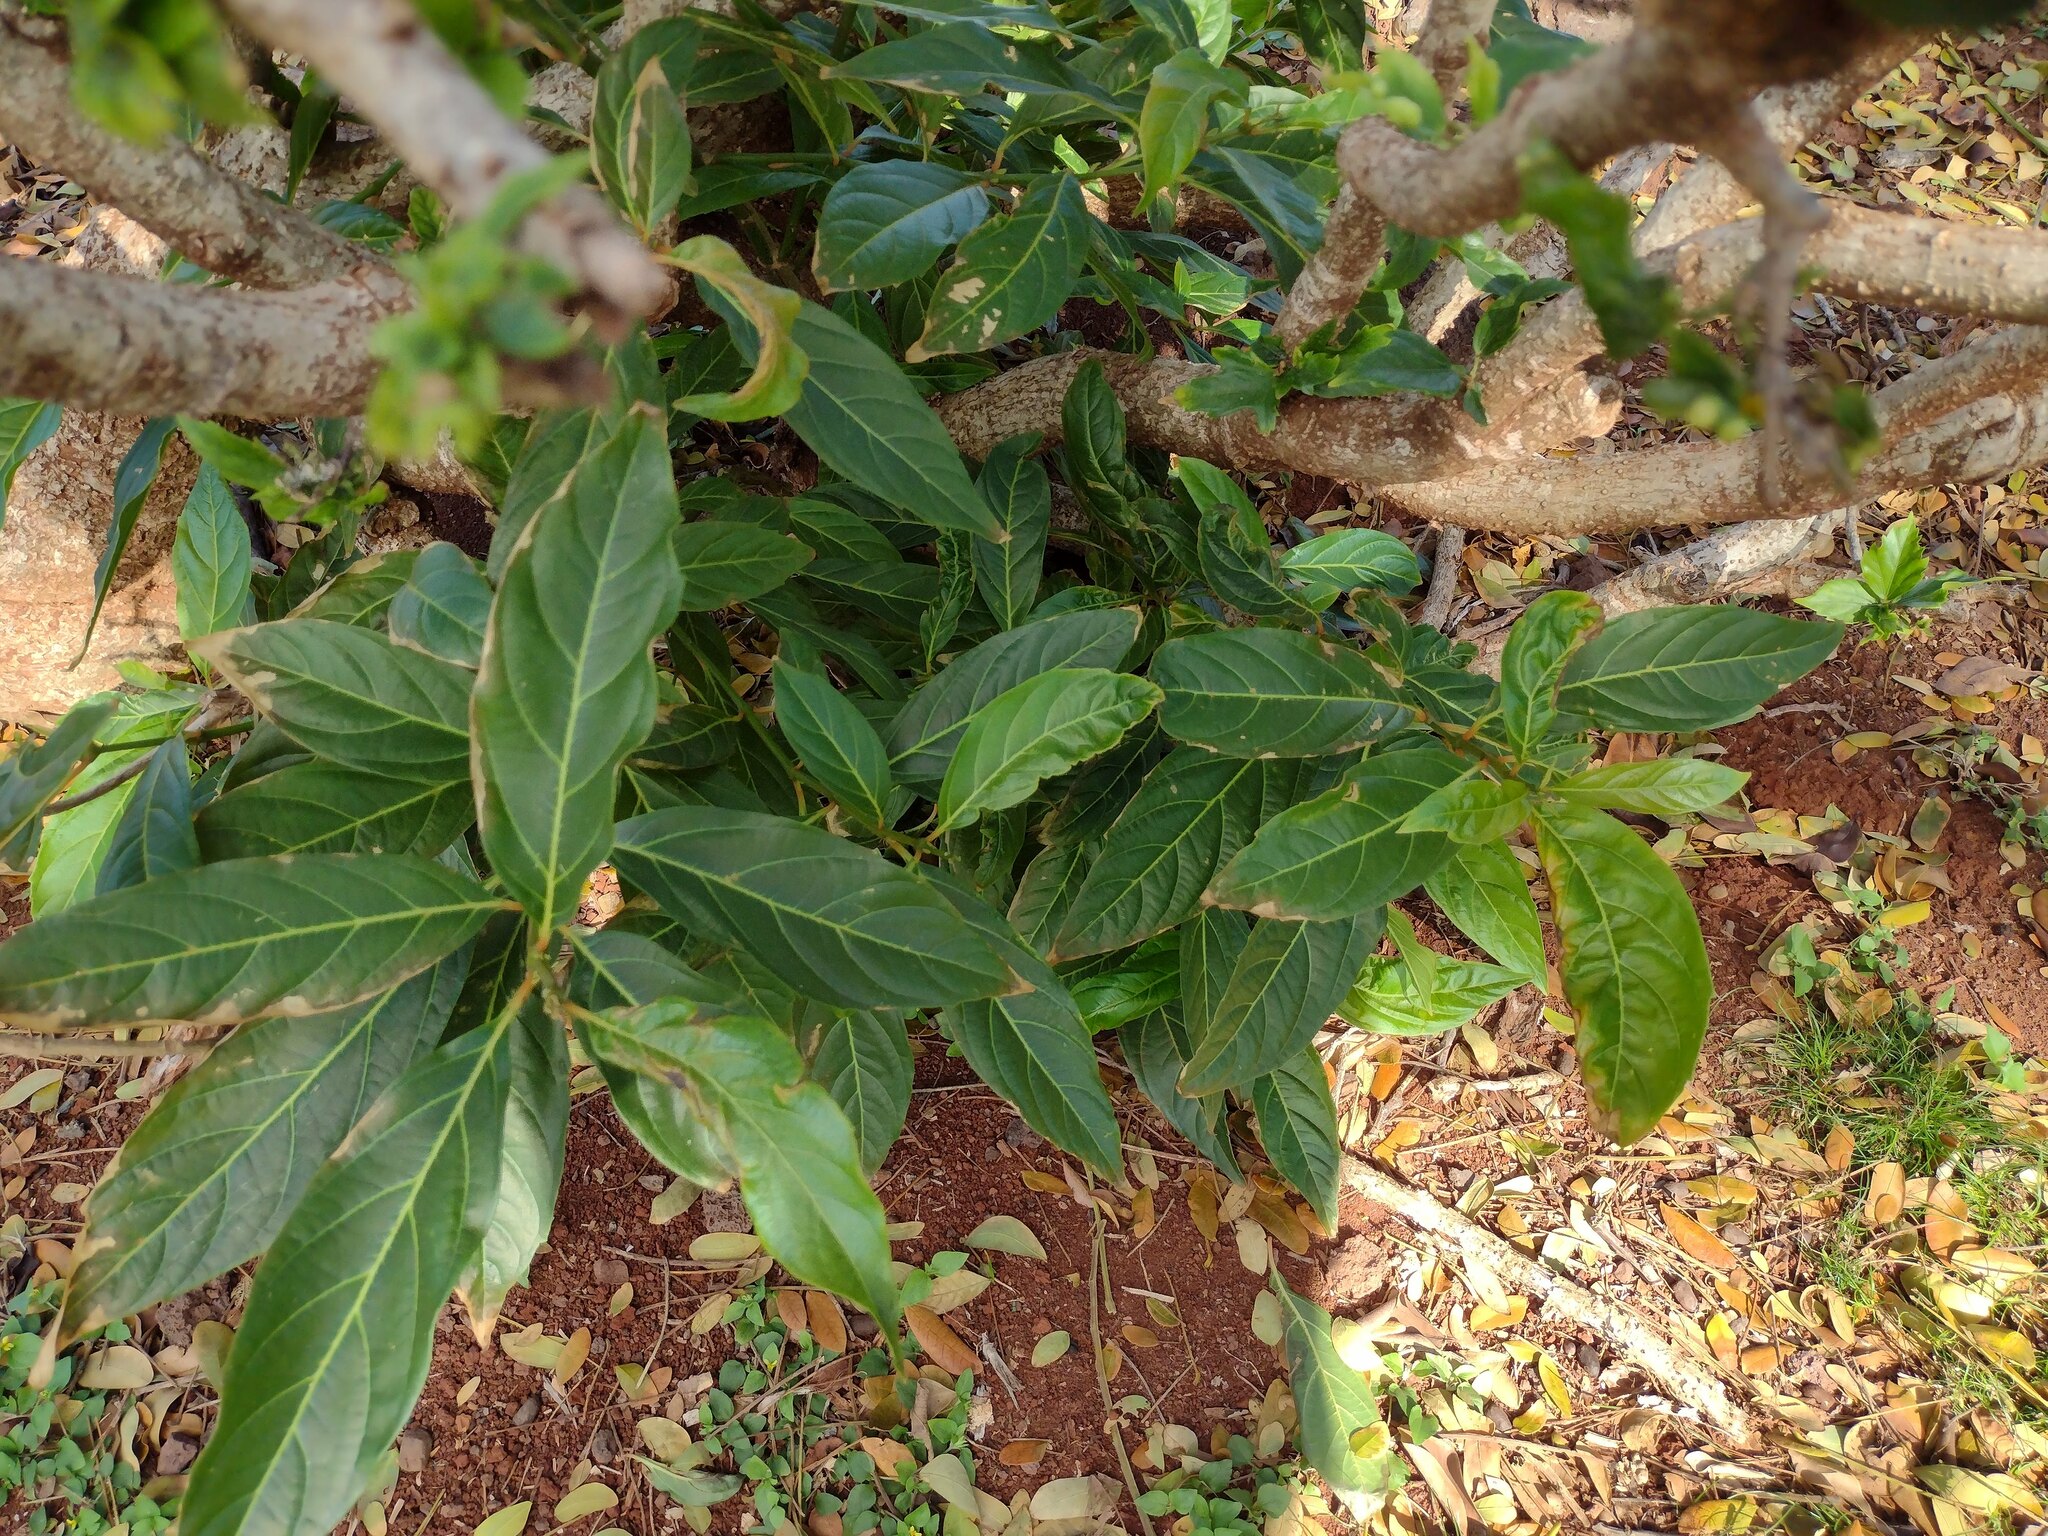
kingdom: Plantae
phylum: Tracheophyta
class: Magnoliopsida
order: Lamiales
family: Verbenaceae
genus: Citharexylum
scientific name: Citharexylum spinosum
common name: Fiddlewood
